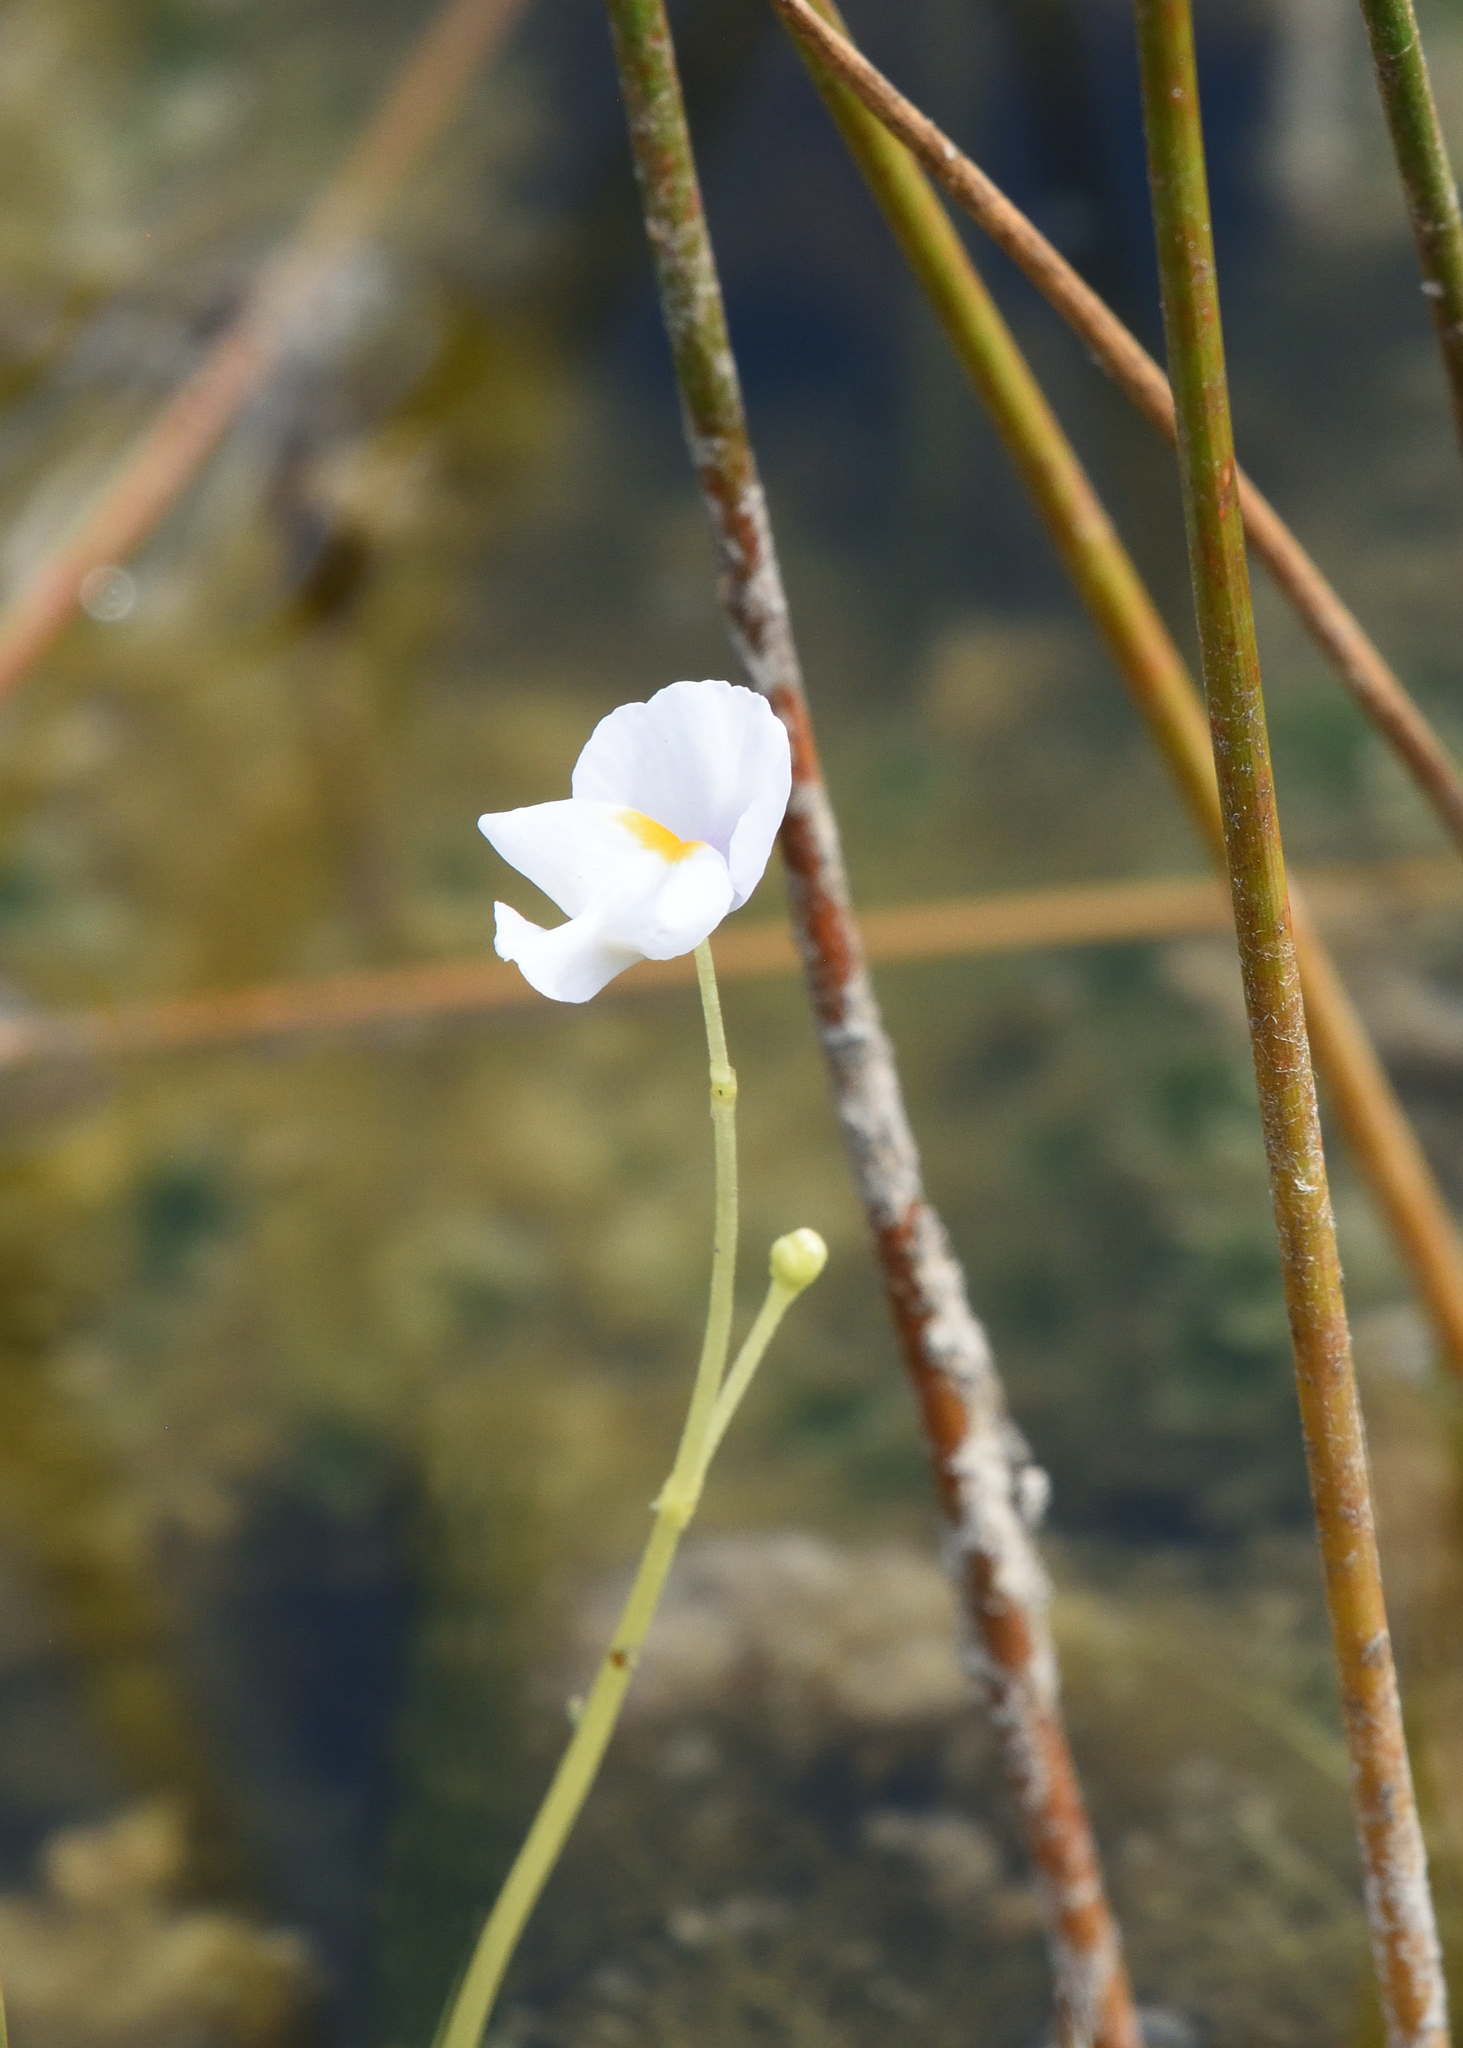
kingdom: Plantae
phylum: Tracheophyta
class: Magnoliopsida
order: Lamiales
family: Lentibulariaceae
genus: Utricularia
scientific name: Utricularia purpurea
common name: Eastern purple bladderwort
